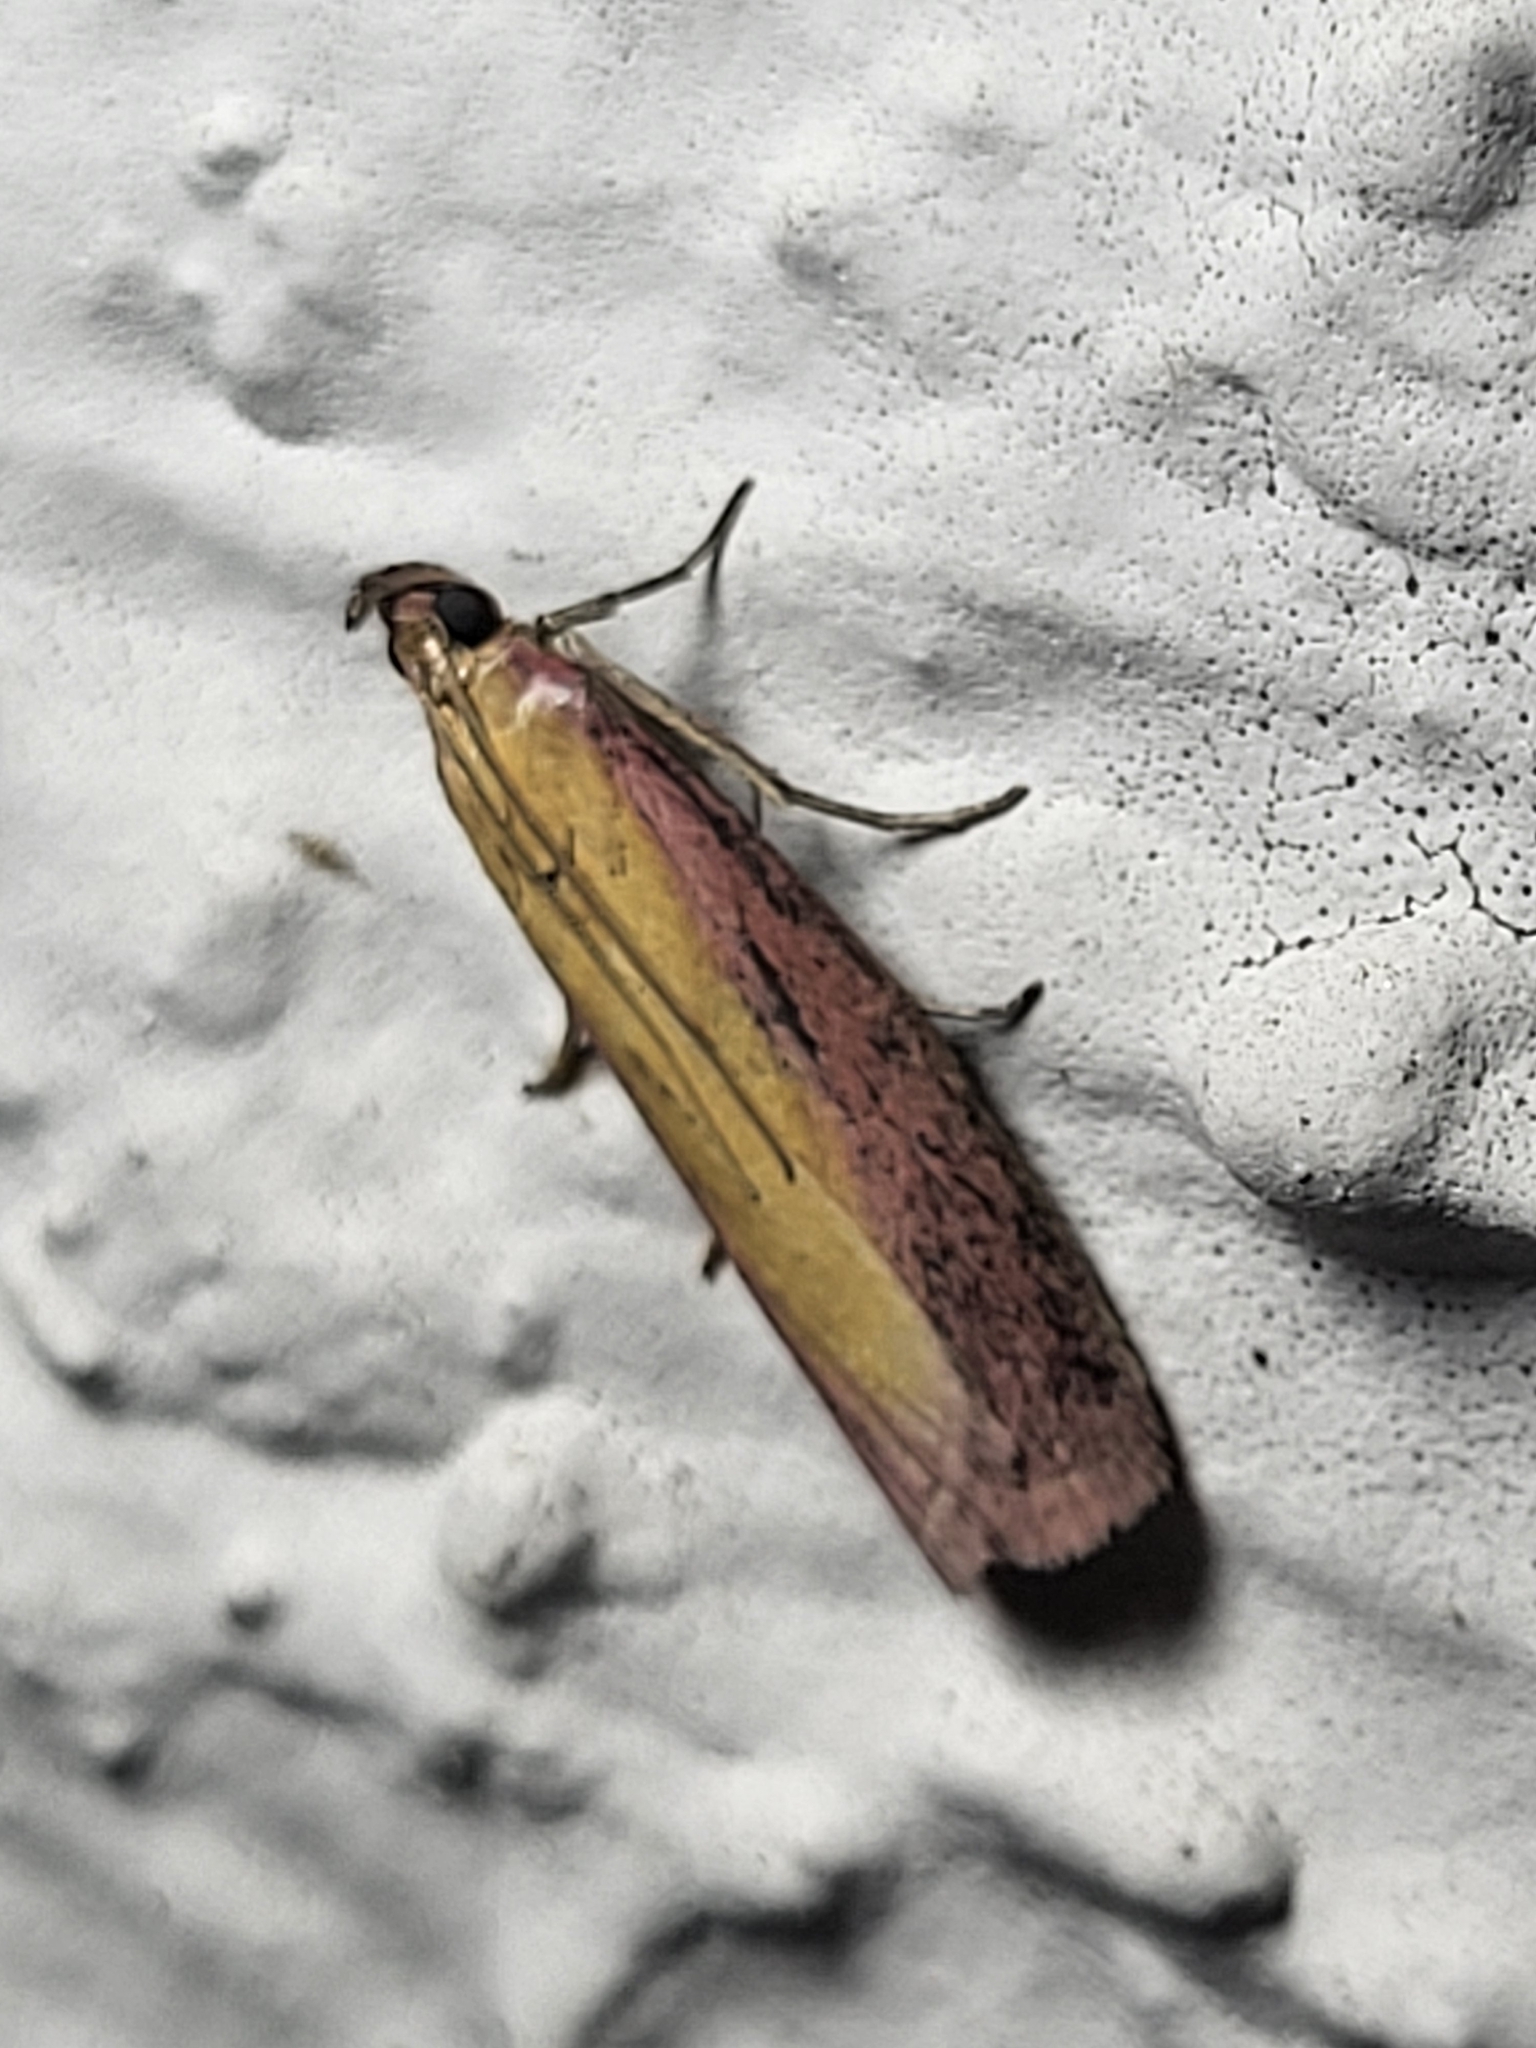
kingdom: Animalia
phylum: Arthropoda
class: Insecta
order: Lepidoptera
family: Pyralidae
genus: Oncocera
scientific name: Oncocera semirubella
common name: Rosy-striped knot-horn
